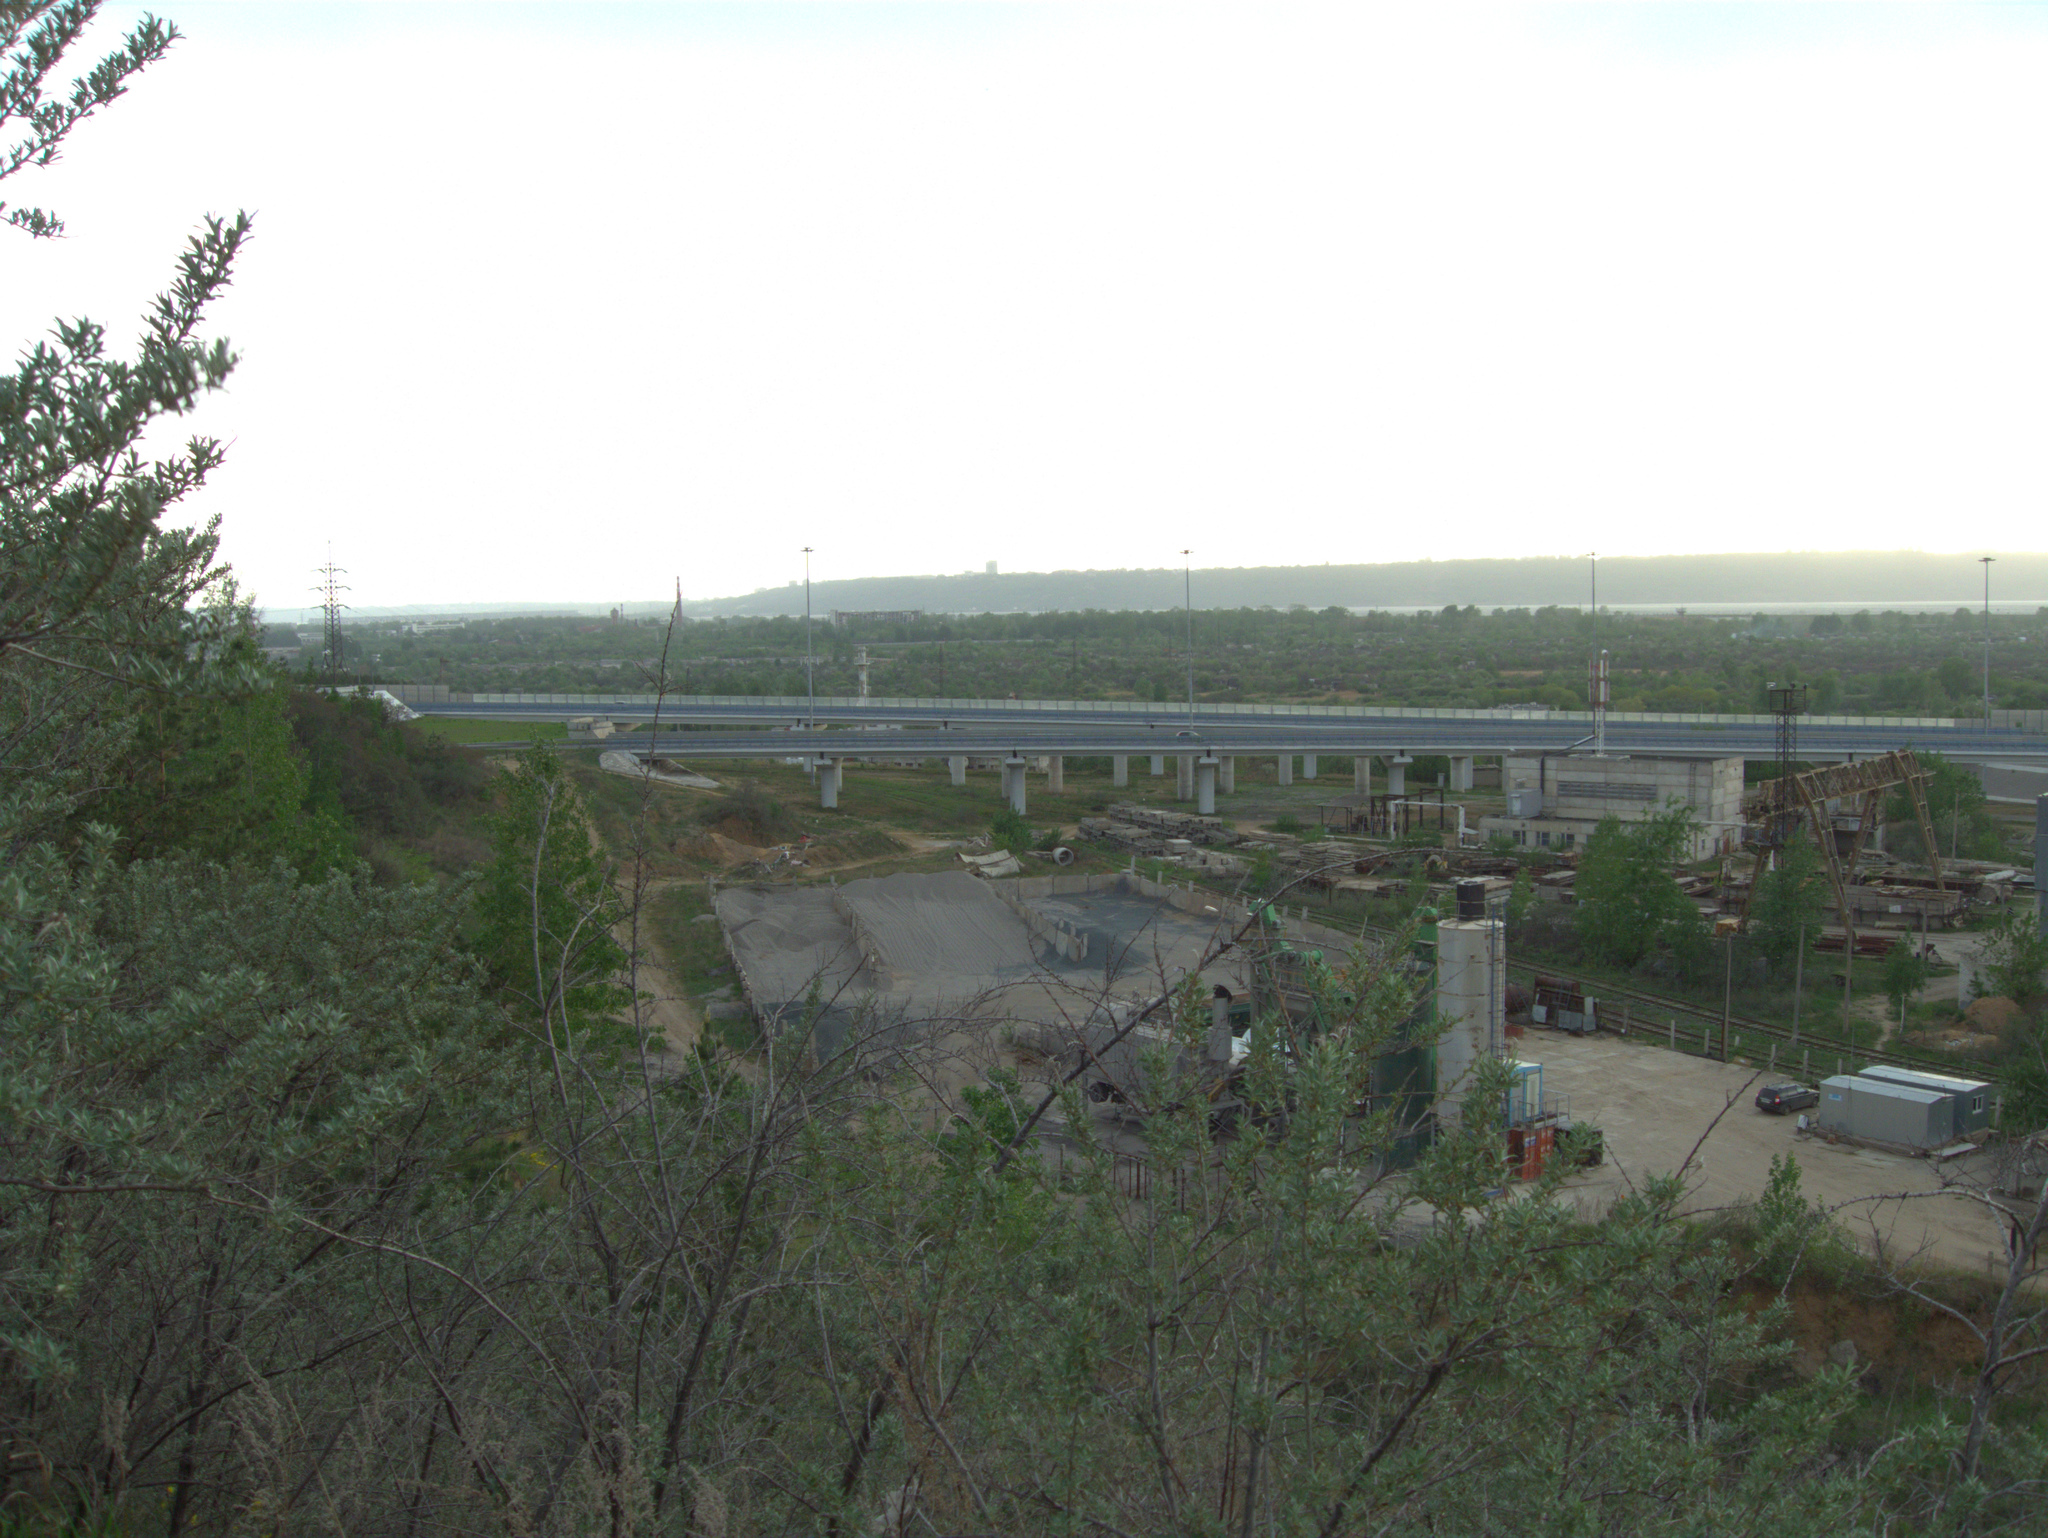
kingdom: Plantae
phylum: Tracheophyta
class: Magnoliopsida
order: Rosales
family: Elaeagnaceae
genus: Hippophae
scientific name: Hippophae rhamnoides
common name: Sea-buckthorn
